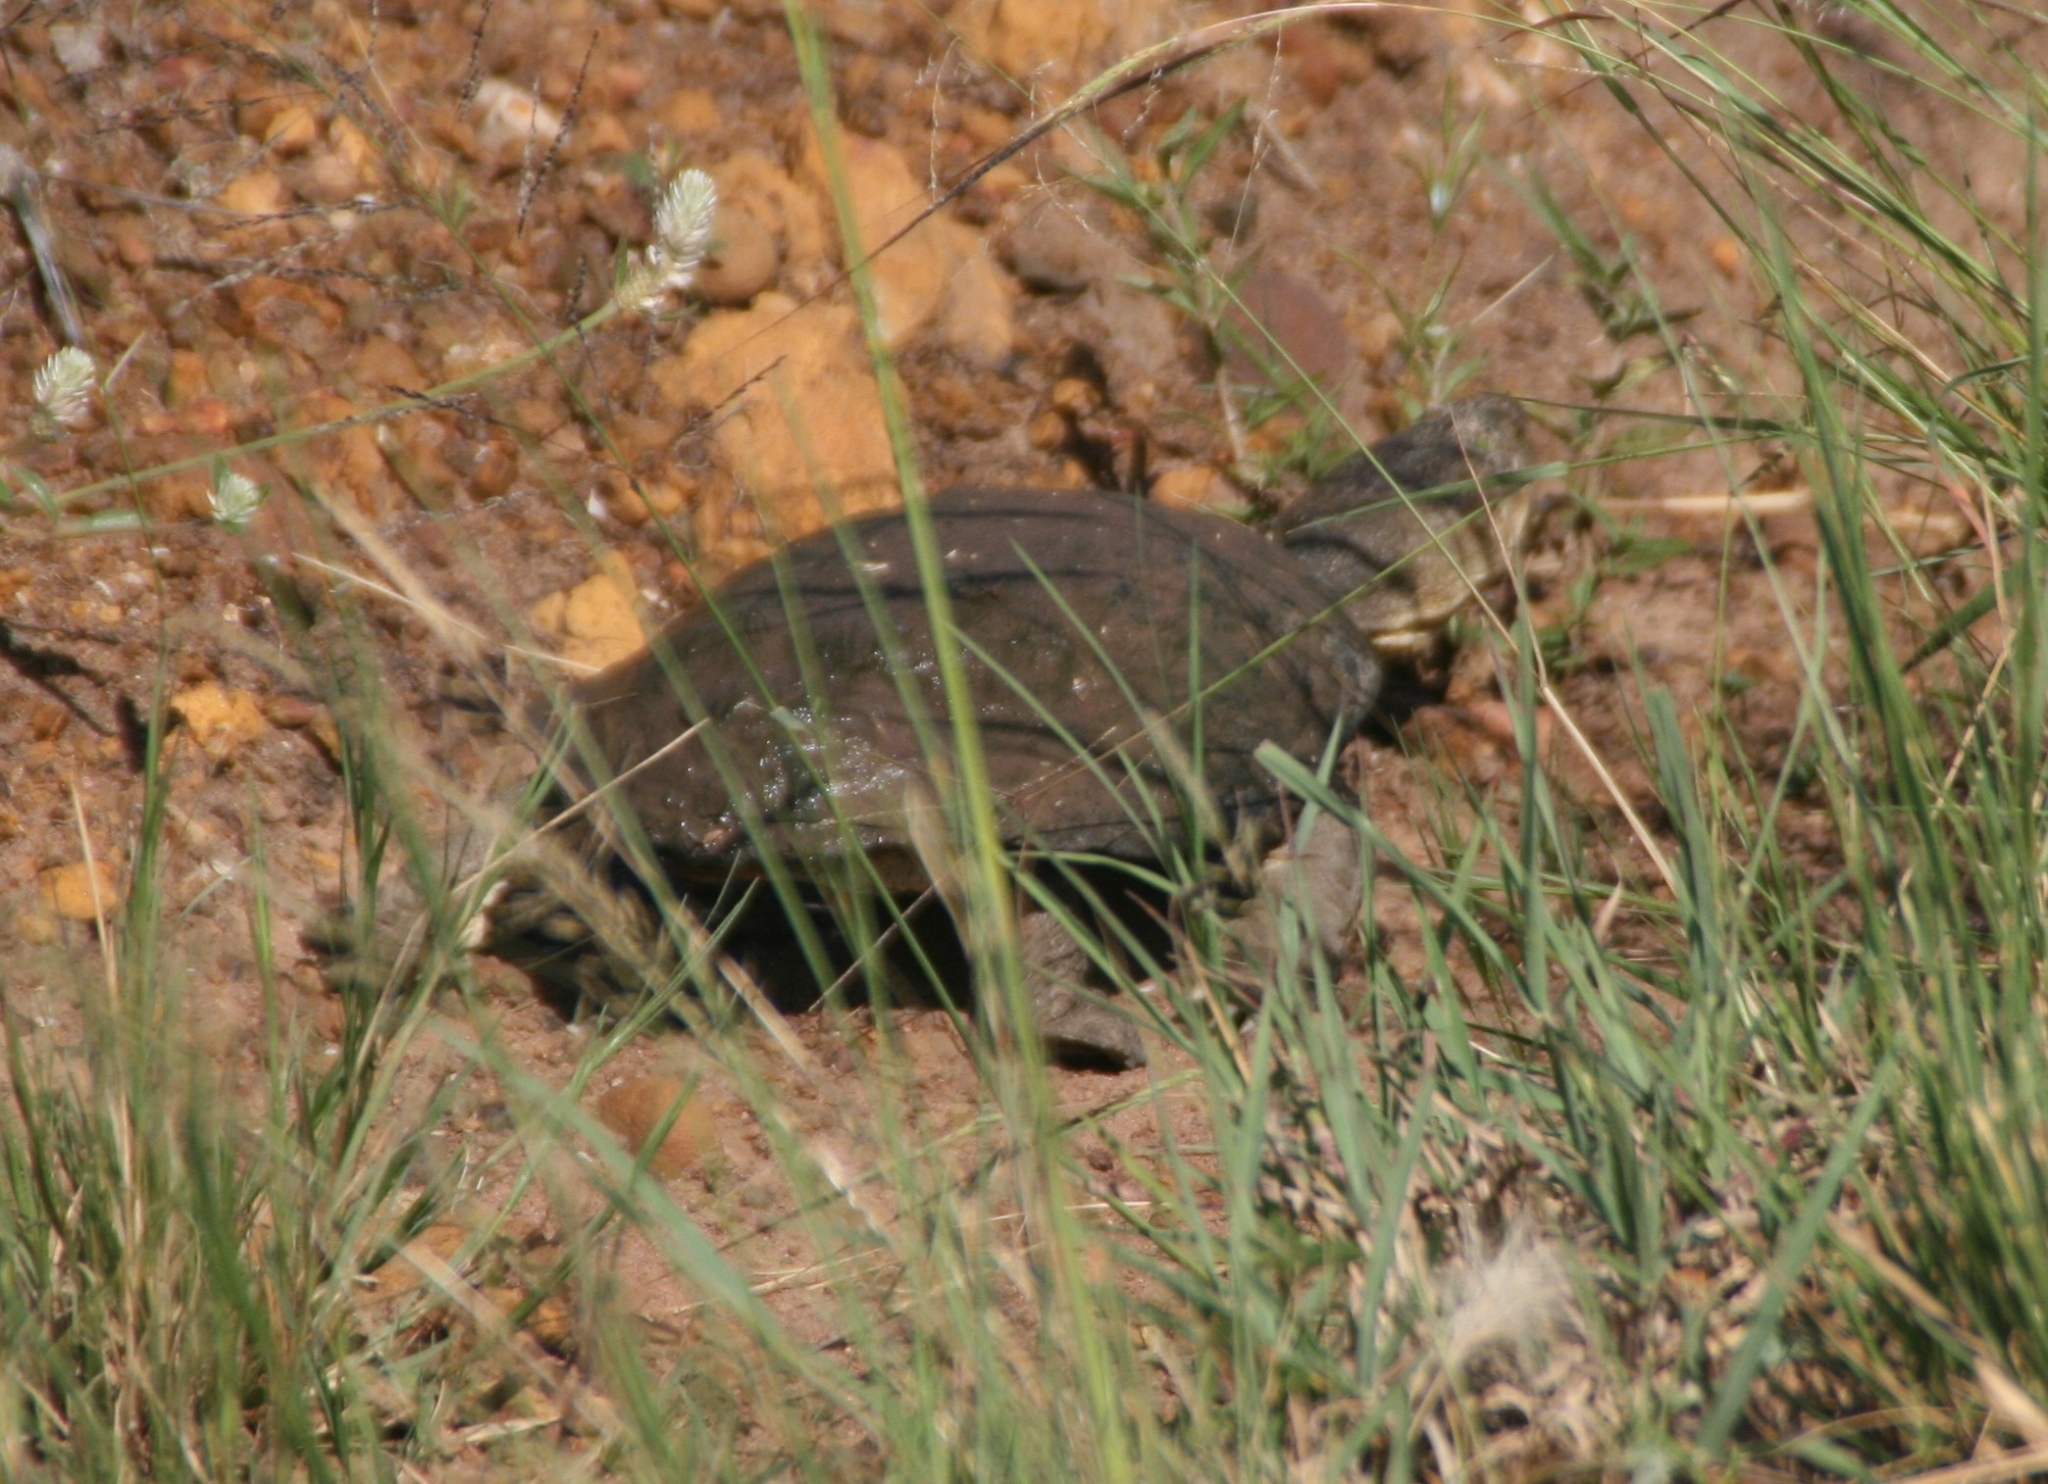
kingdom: Animalia
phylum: Chordata
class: Testudines
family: Pelomedusidae
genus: Pelomedusa
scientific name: Pelomedusa galeata
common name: South african helmeted terrapin
